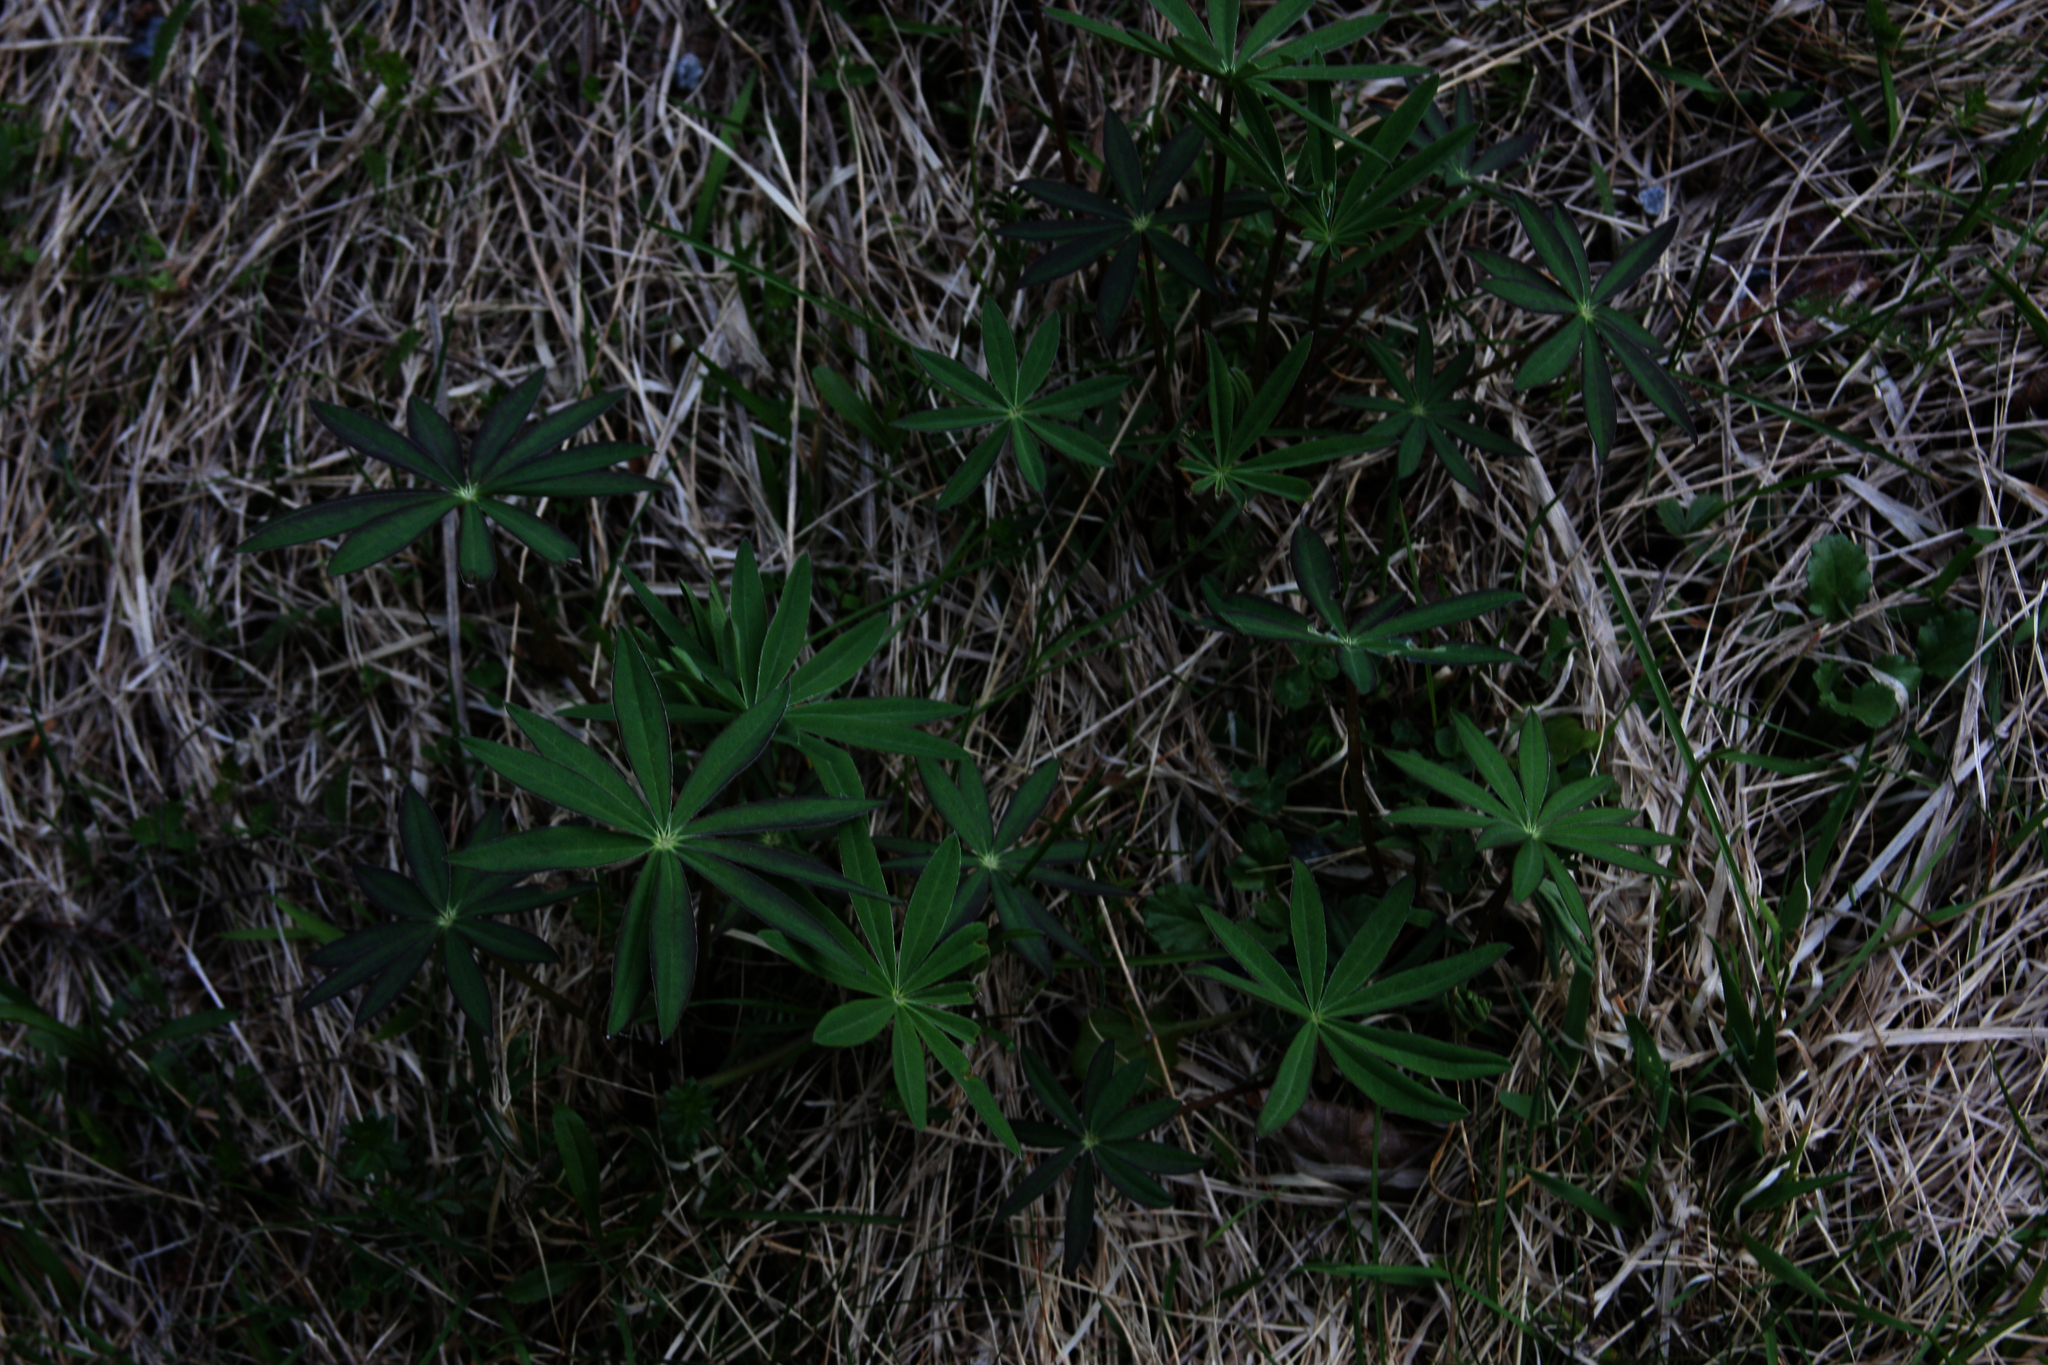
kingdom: Plantae
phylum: Tracheophyta
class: Magnoliopsida
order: Fabales
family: Fabaceae
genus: Lupinus
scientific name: Lupinus polyphyllus
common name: Garden lupin
